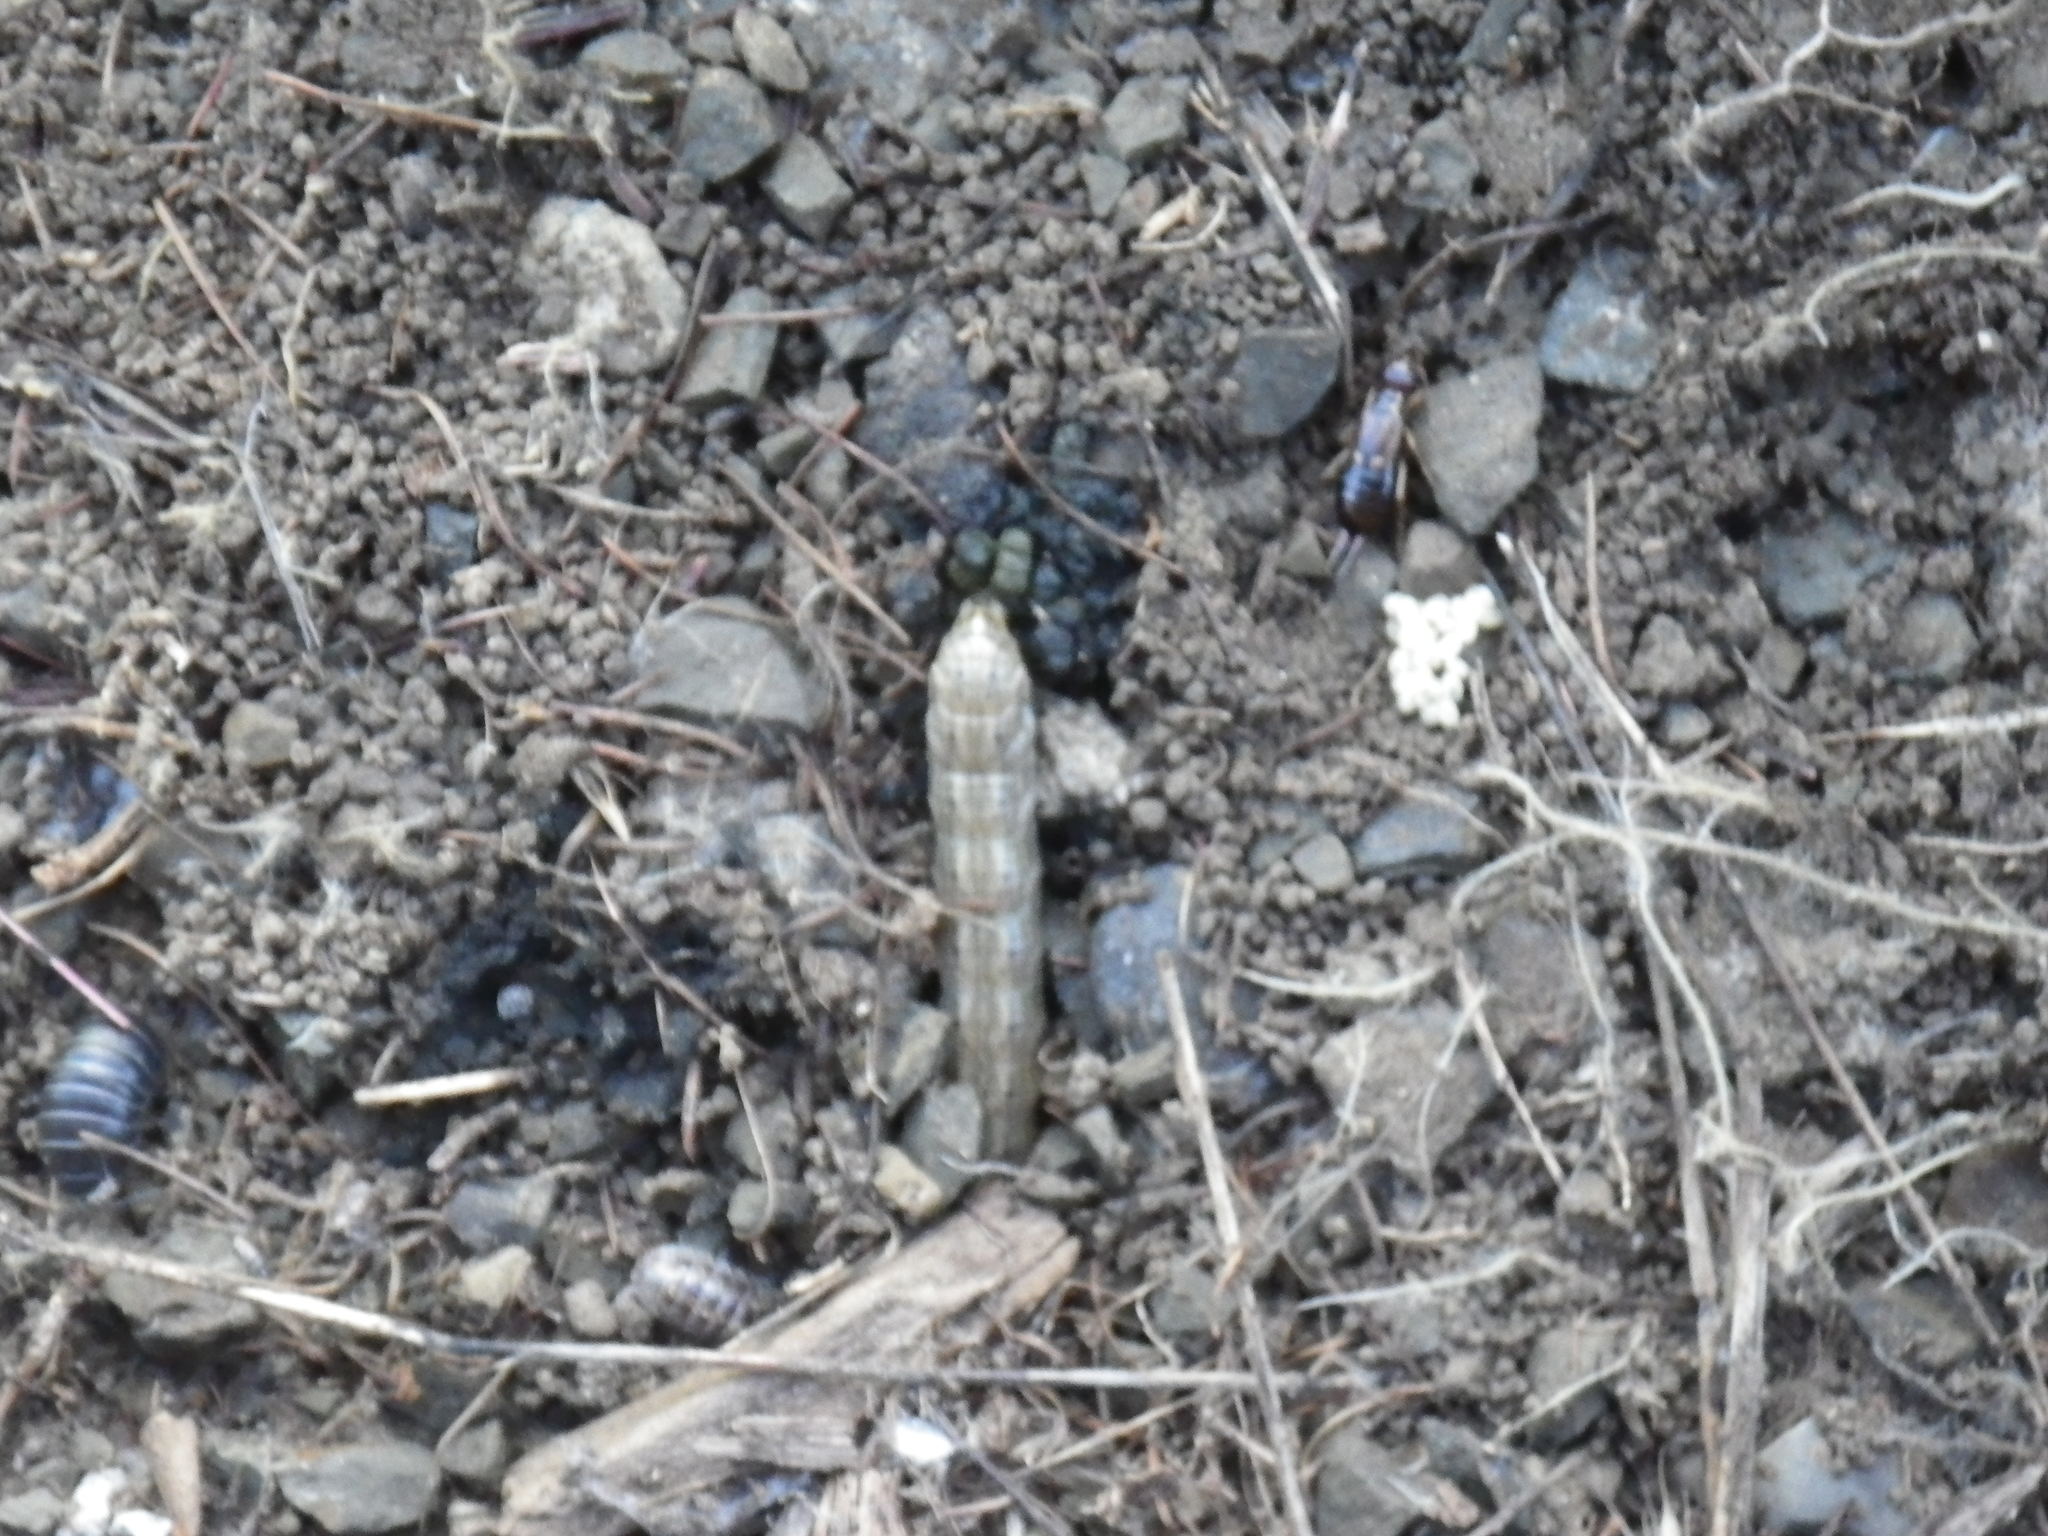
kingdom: Animalia
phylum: Arthropoda
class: Insecta
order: Dermaptera
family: Forficulidae
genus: Forficula
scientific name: Forficula dentata
